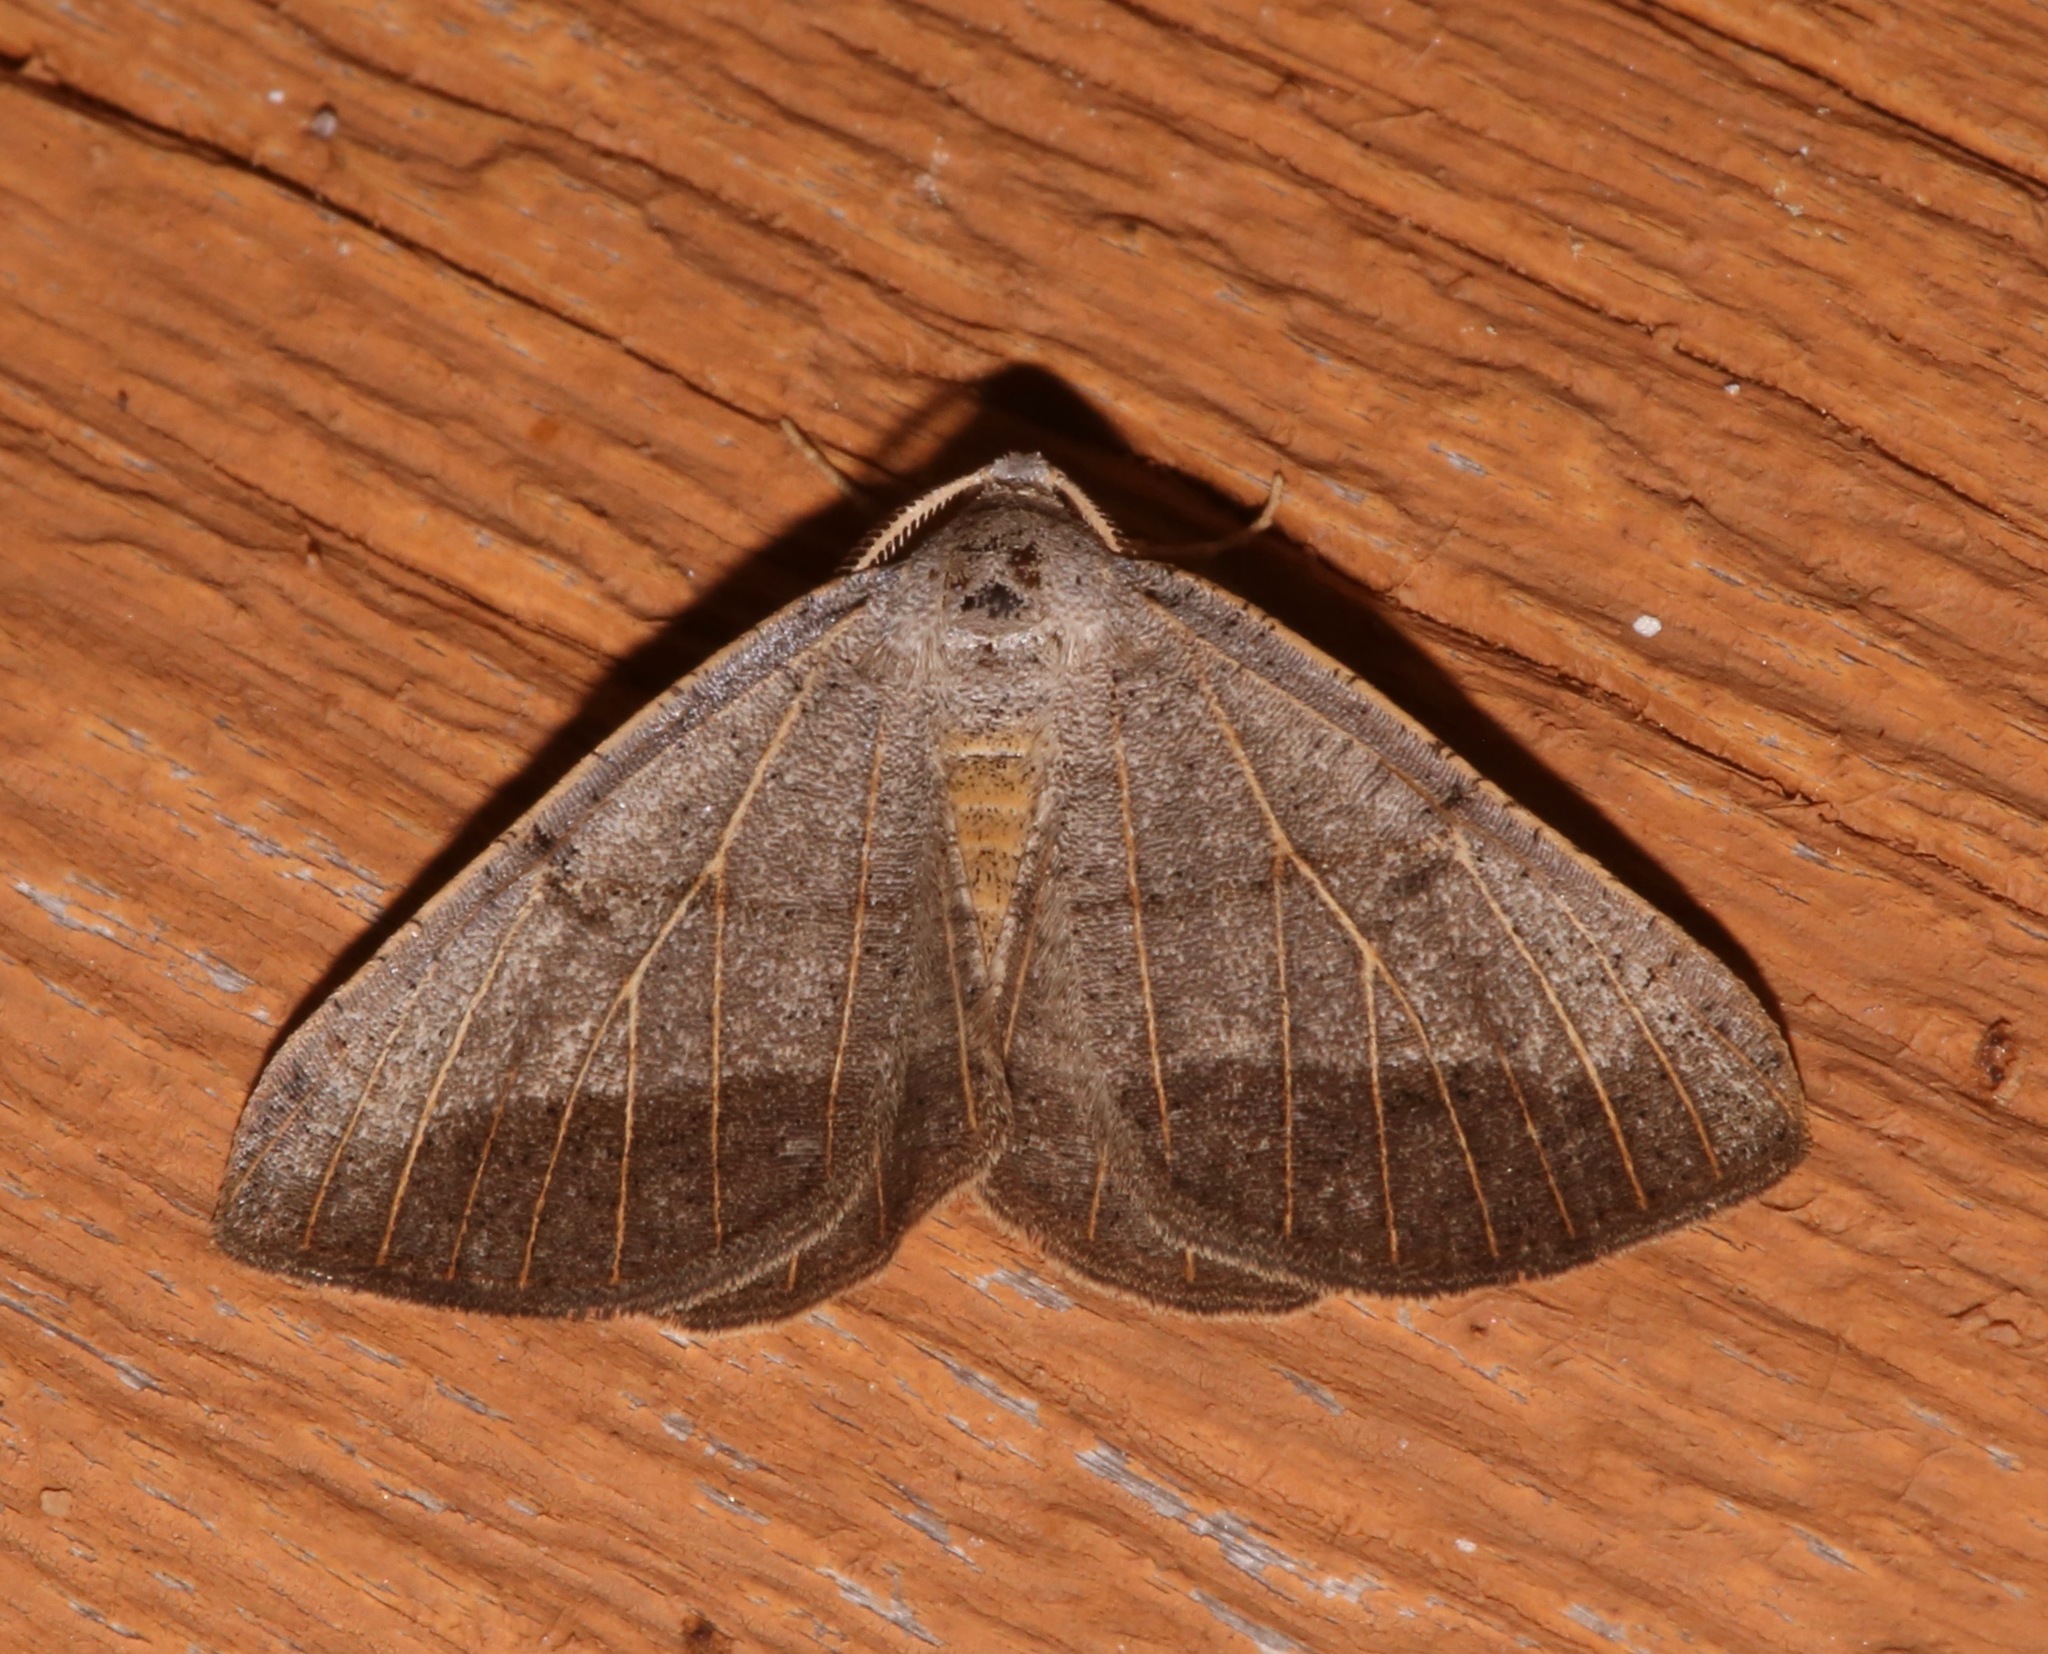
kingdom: Animalia
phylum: Arthropoda
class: Insecta
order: Lepidoptera
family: Geometridae
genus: Isturgia
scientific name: Isturgia dislocaria
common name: Pale-viened enconista
